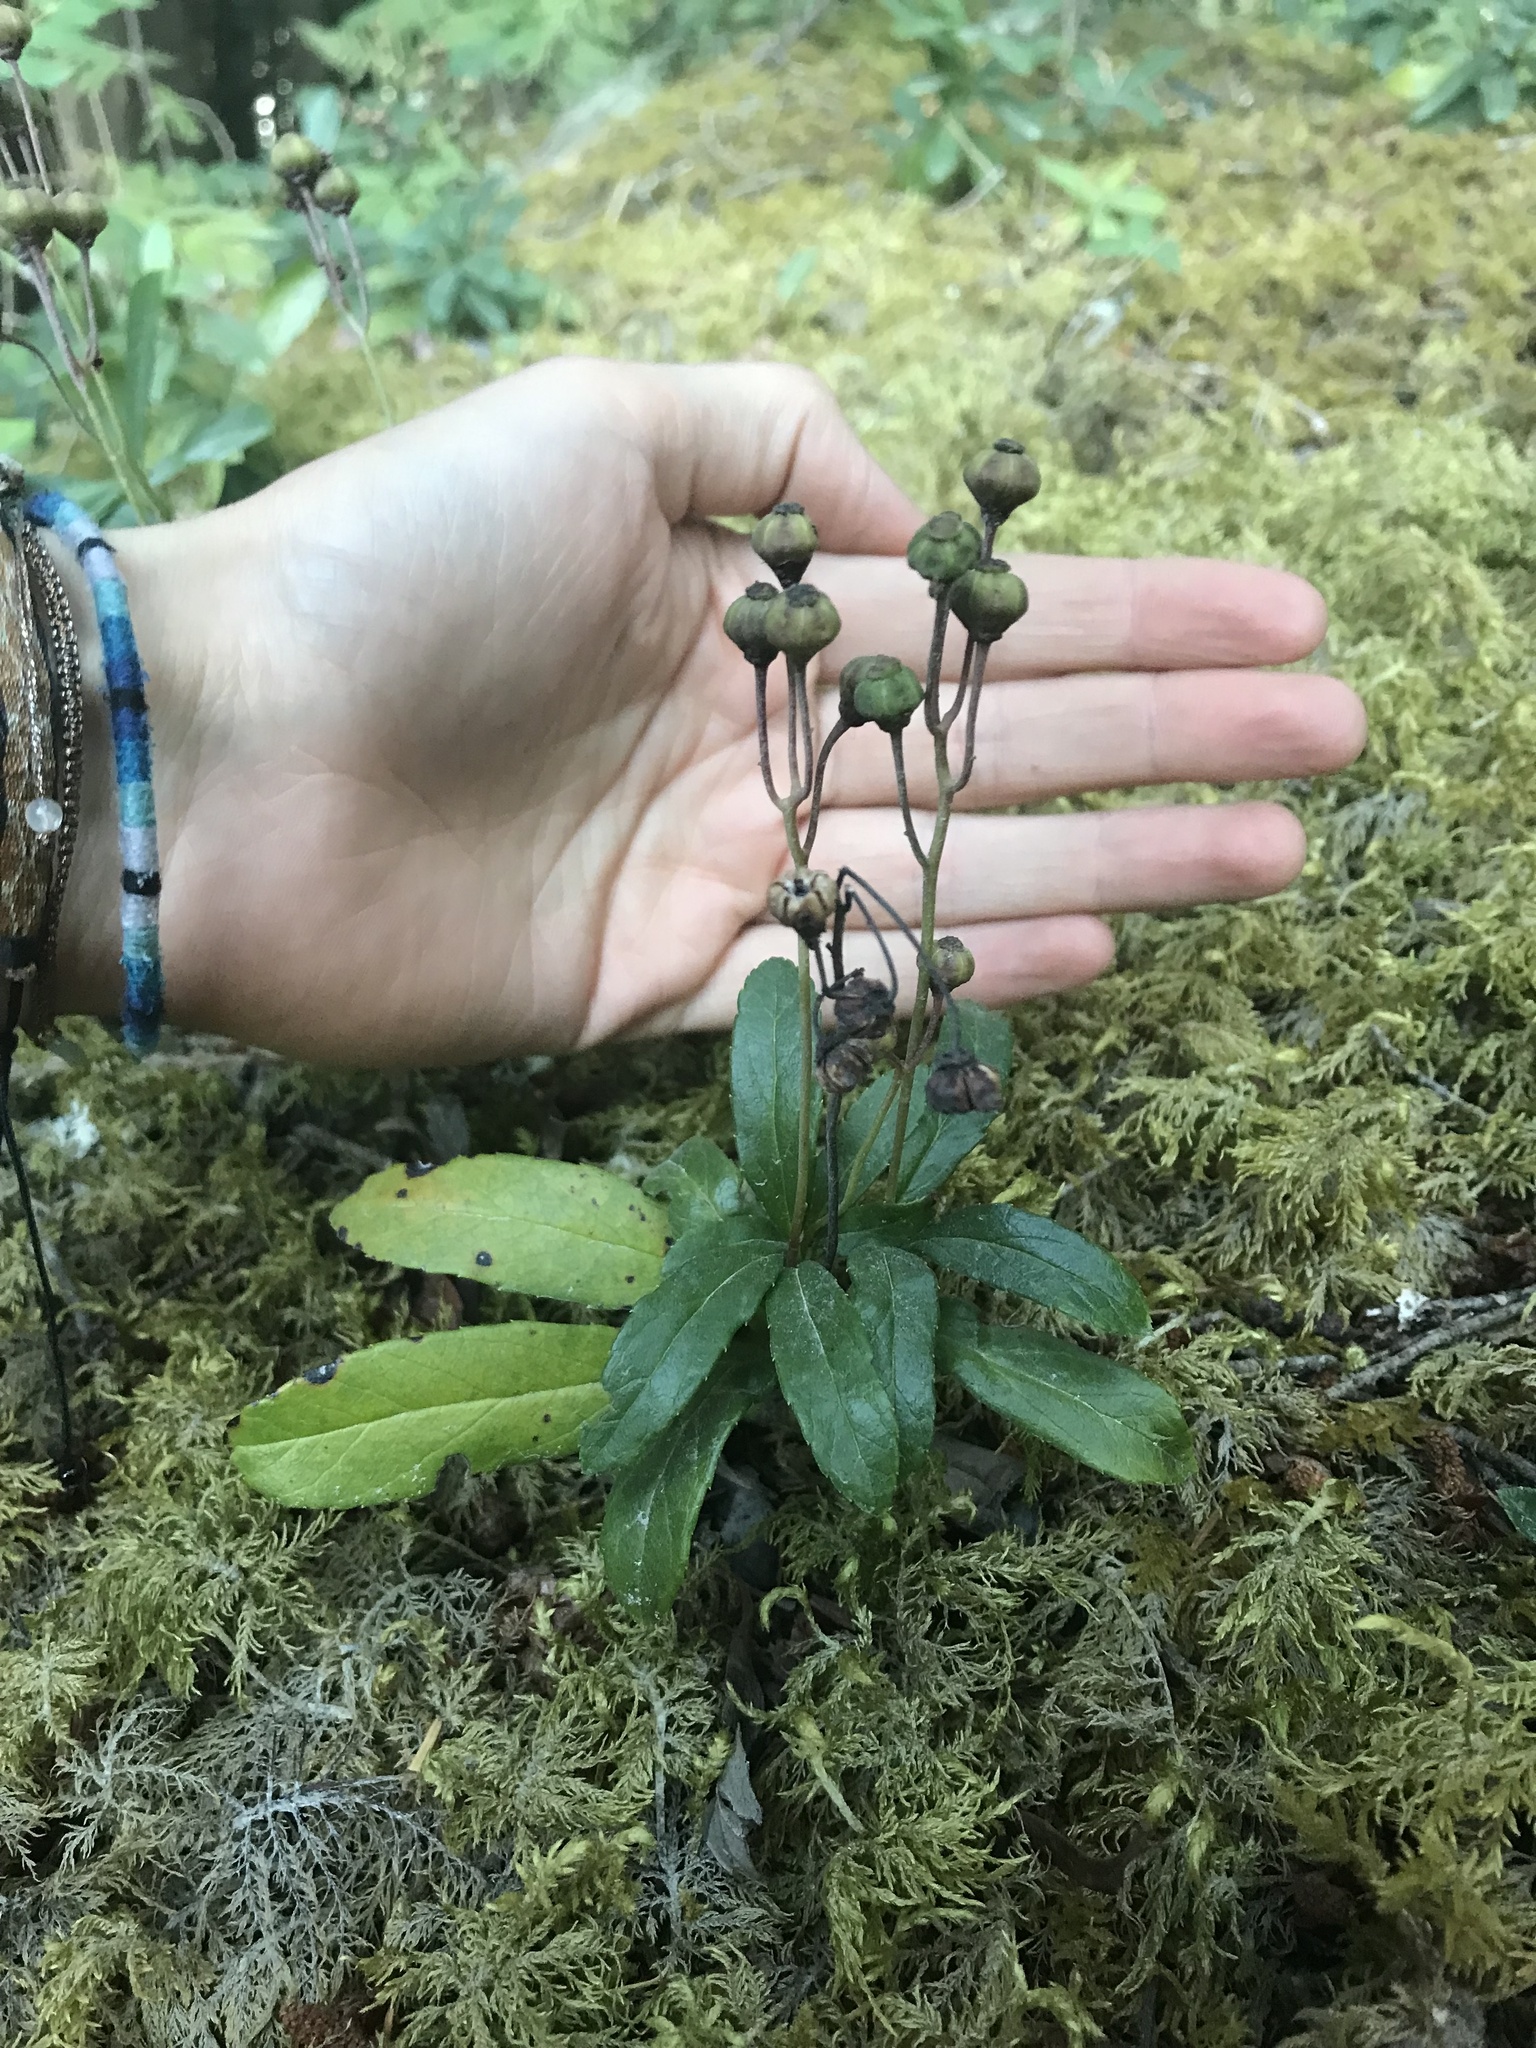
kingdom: Plantae
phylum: Tracheophyta
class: Magnoliopsida
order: Ericales
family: Ericaceae
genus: Chimaphila
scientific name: Chimaphila umbellata
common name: Pipsissewa
